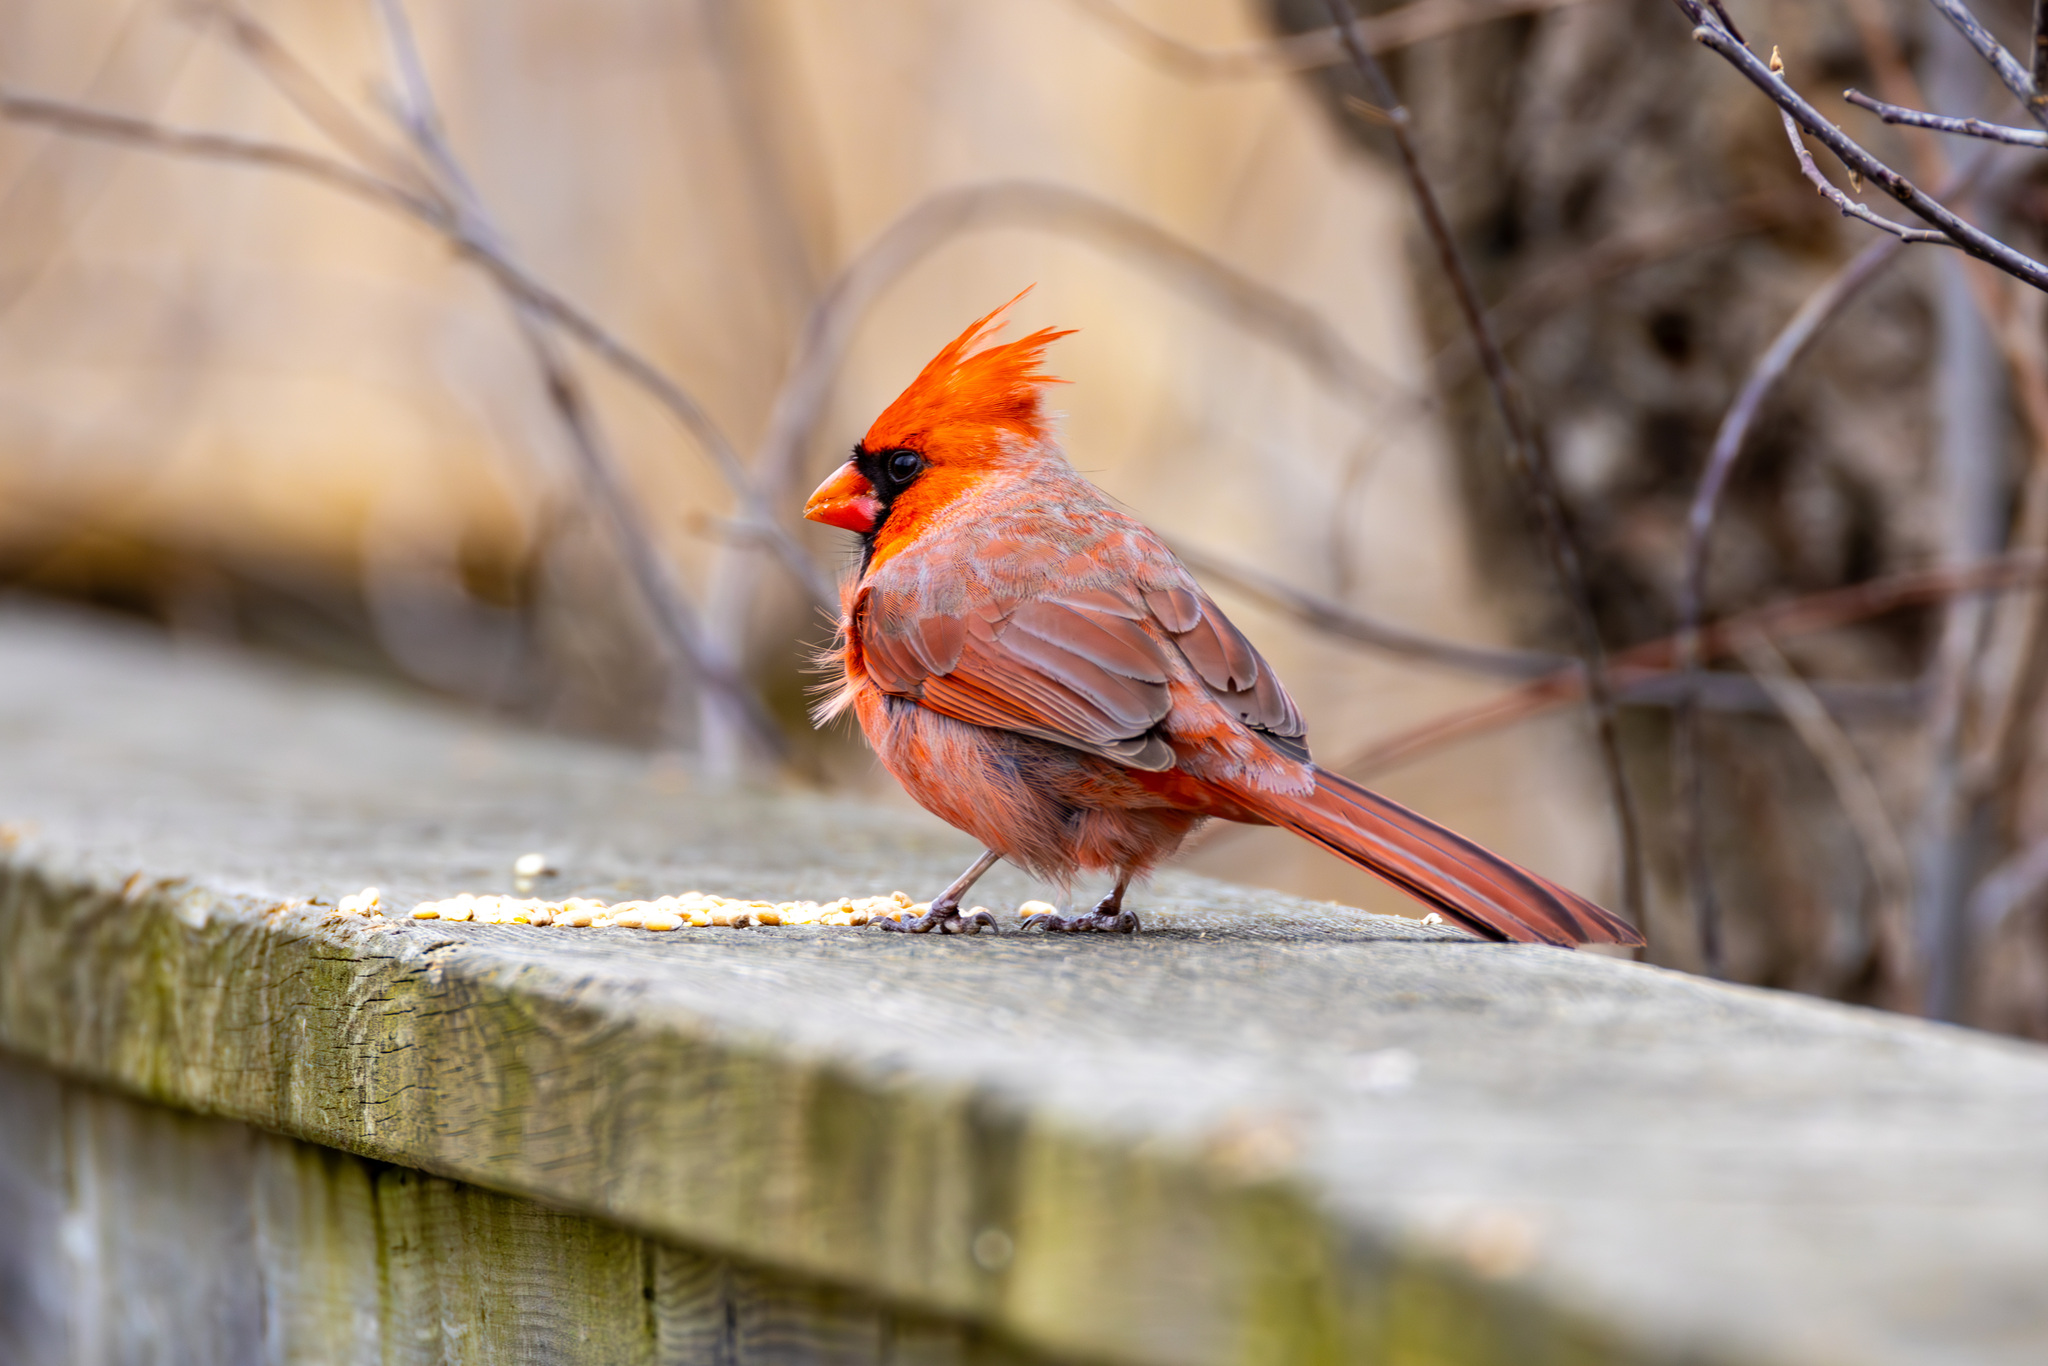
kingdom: Animalia
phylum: Chordata
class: Aves
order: Passeriformes
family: Cardinalidae
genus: Cardinalis
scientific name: Cardinalis cardinalis
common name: Northern cardinal
